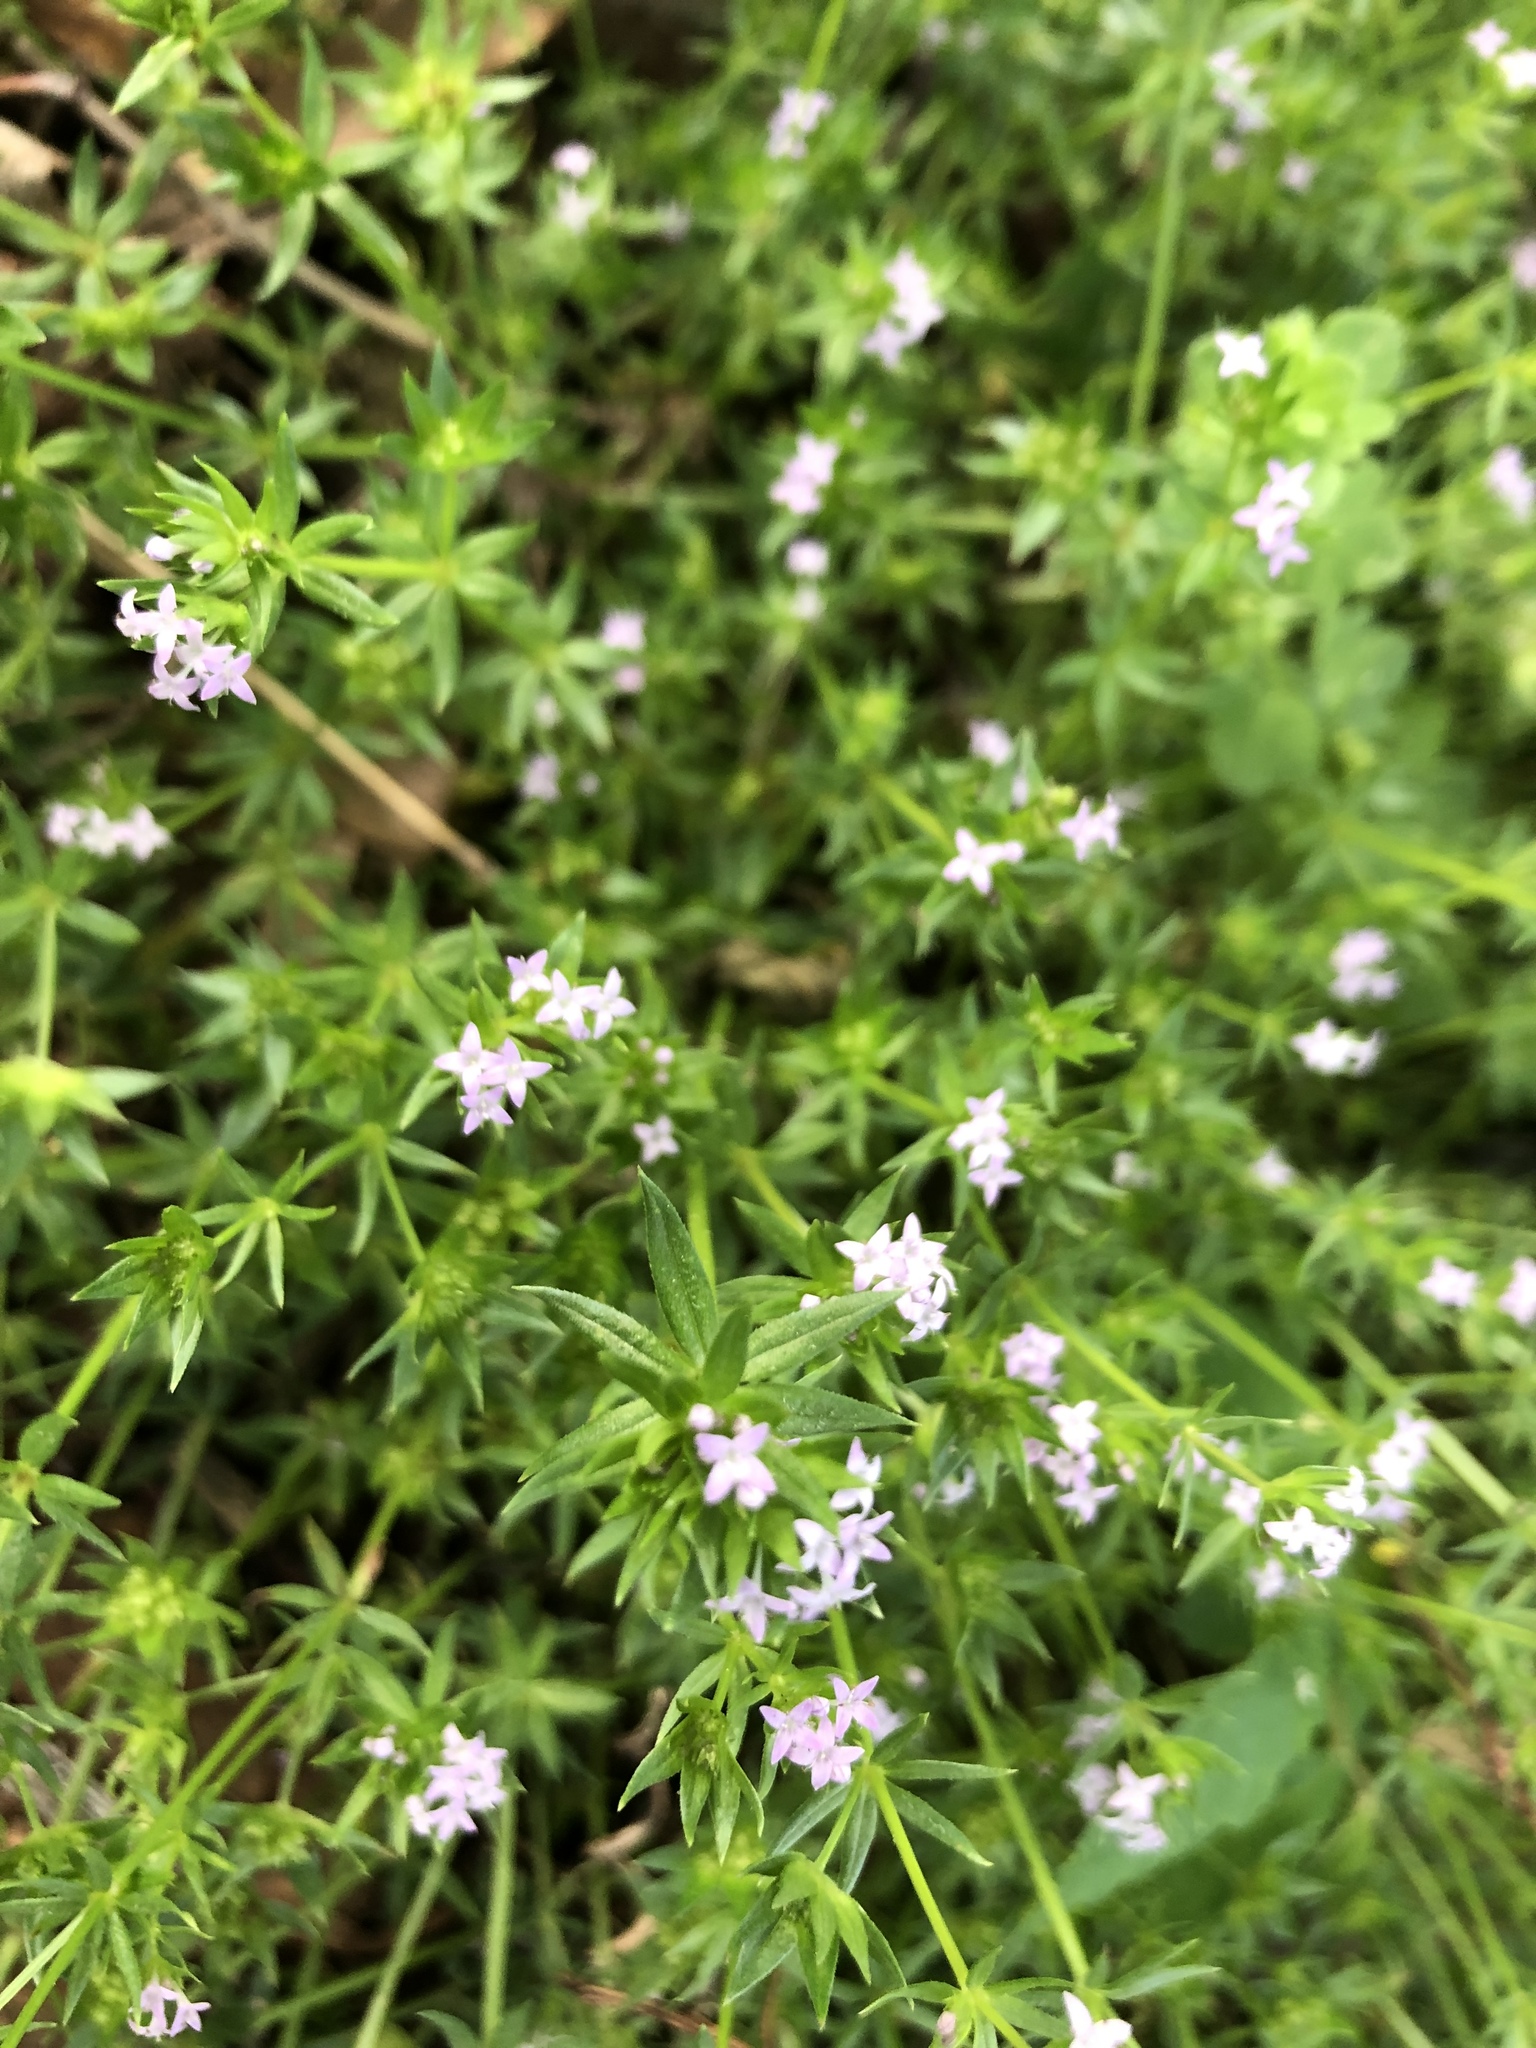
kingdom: Plantae
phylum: Tracheophyta
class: Magnoliopsida
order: Gentianales
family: Rubiaceae
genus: Sherardia
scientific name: Sherardia arvensis
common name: Field madder
